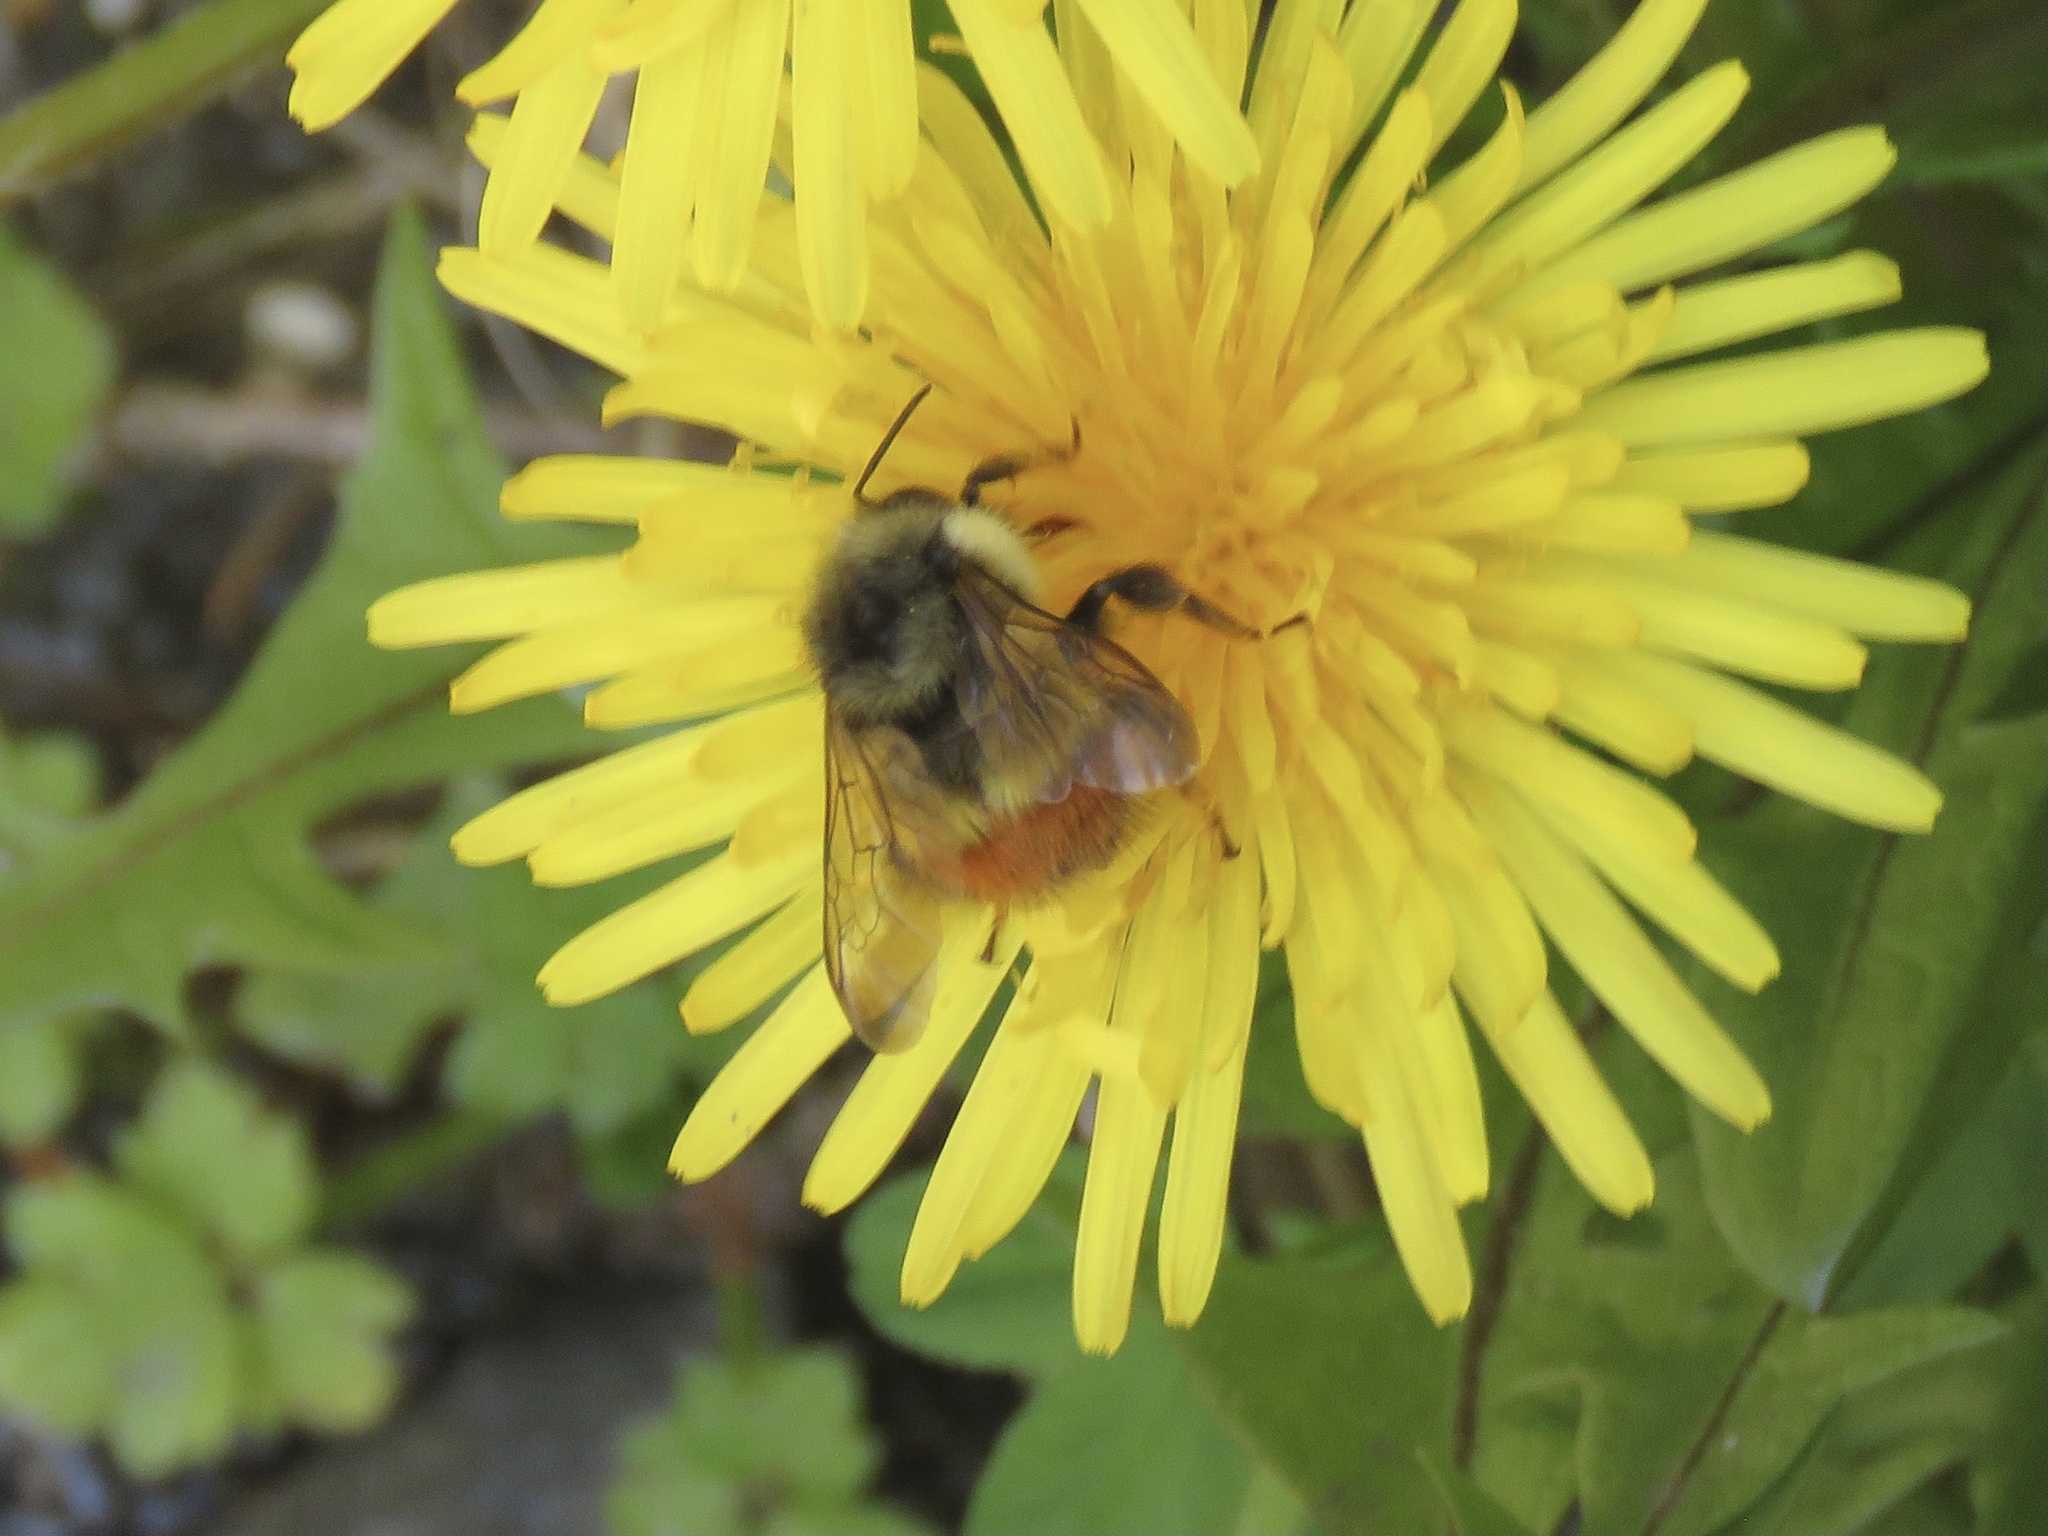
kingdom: Animalia
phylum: Arthropoda
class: Insecta
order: Hymenoptera
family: Apidae
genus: Bombus
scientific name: Bombus flavifrons
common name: Yellow head bumble bee
